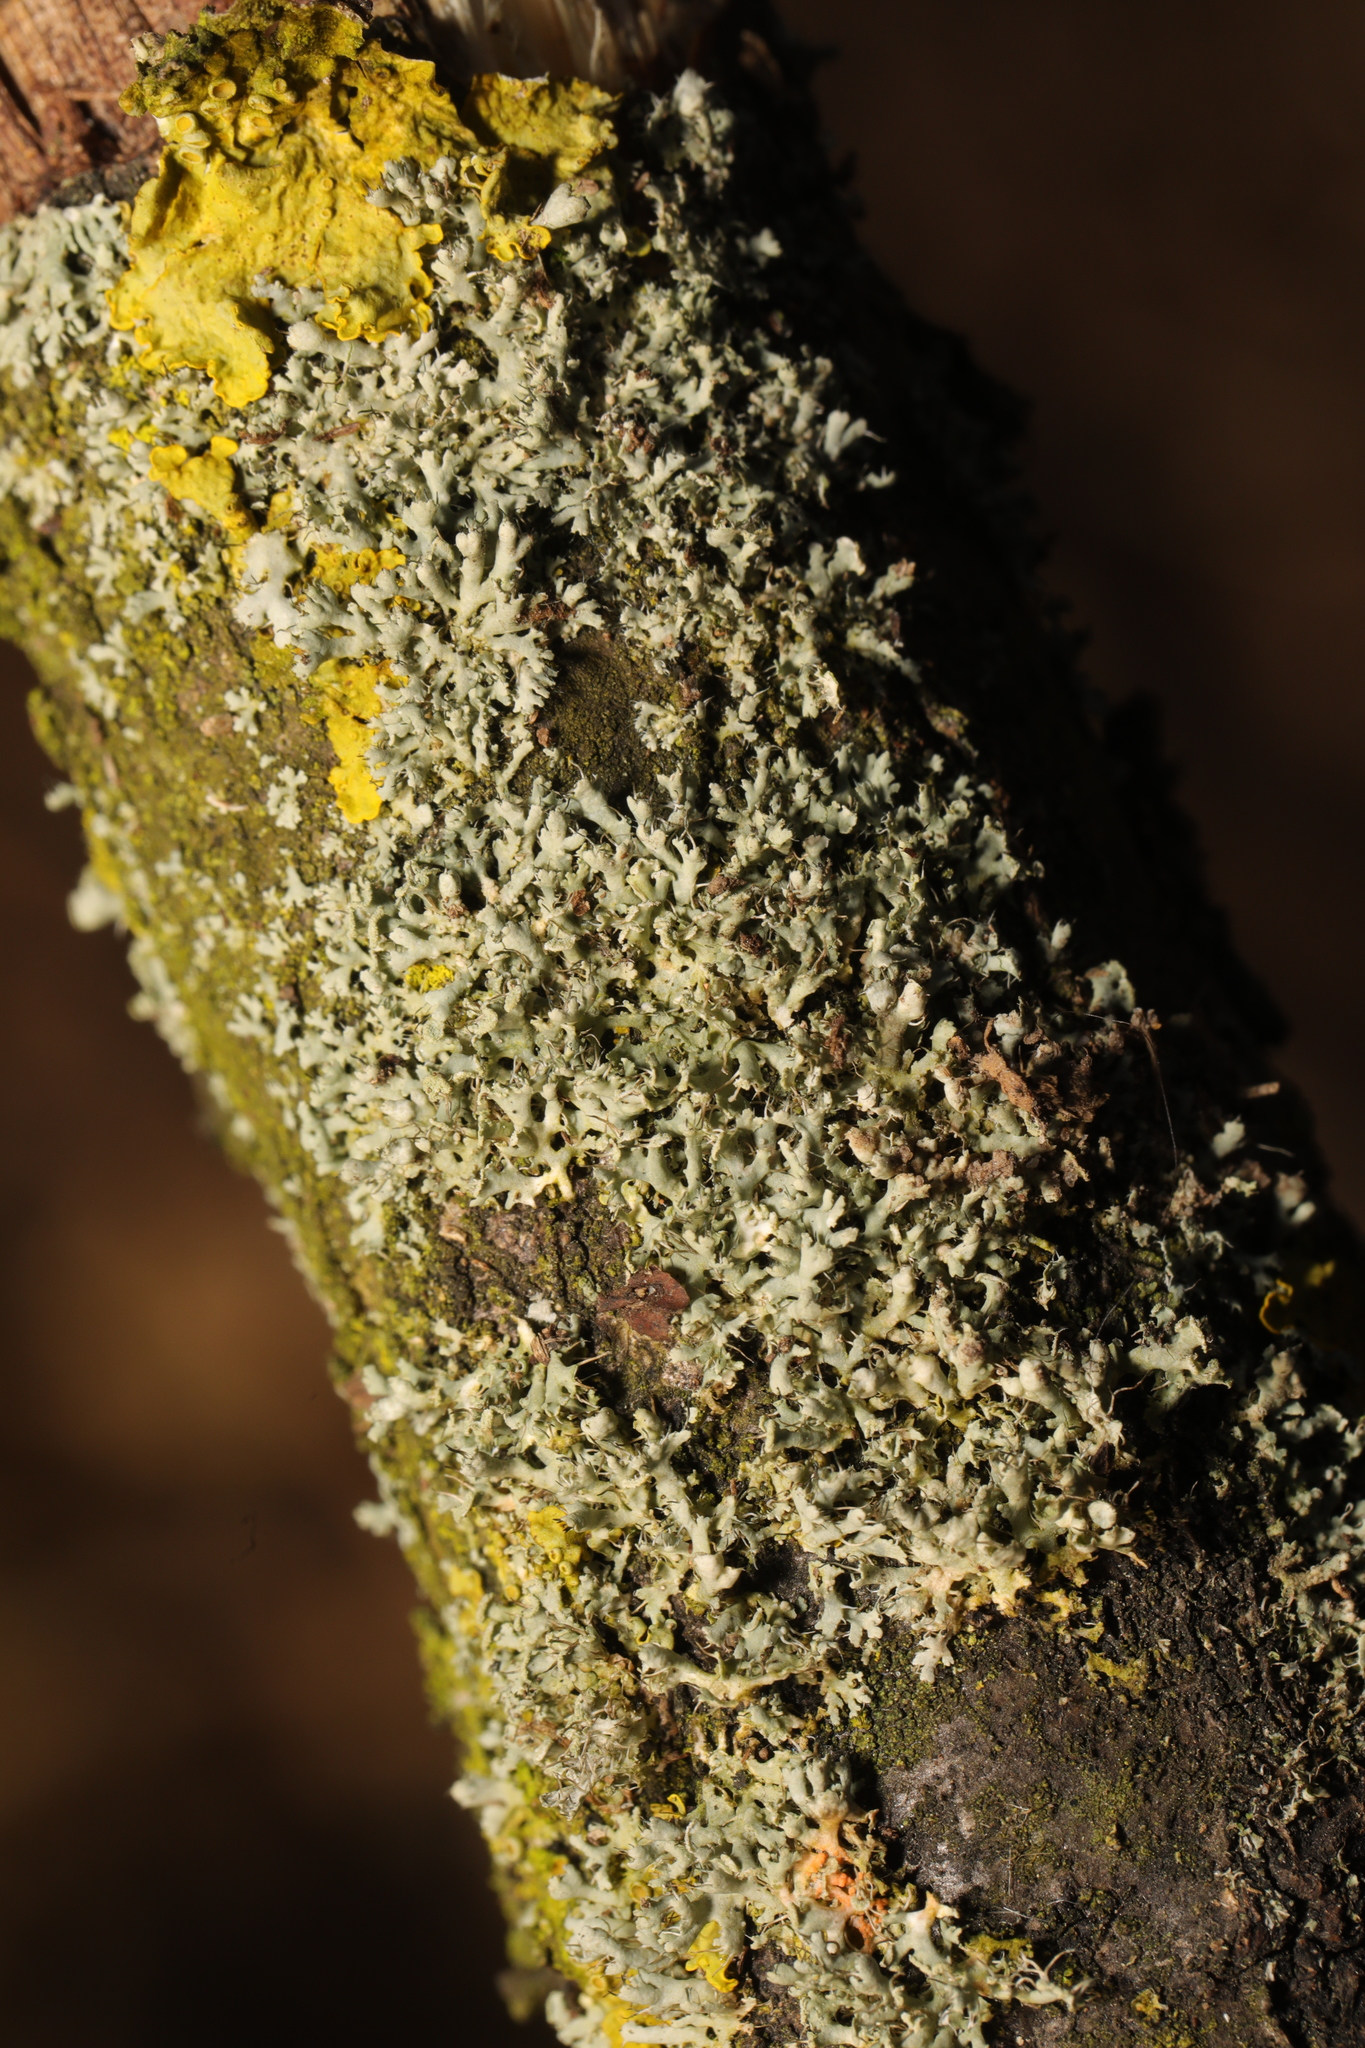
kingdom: Fungi
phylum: Ascomycota
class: Lecanoromycetes
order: Caliciales
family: Physciaceae
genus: Physcia
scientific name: Physcia adscendens
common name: Hooded rosette lichen
